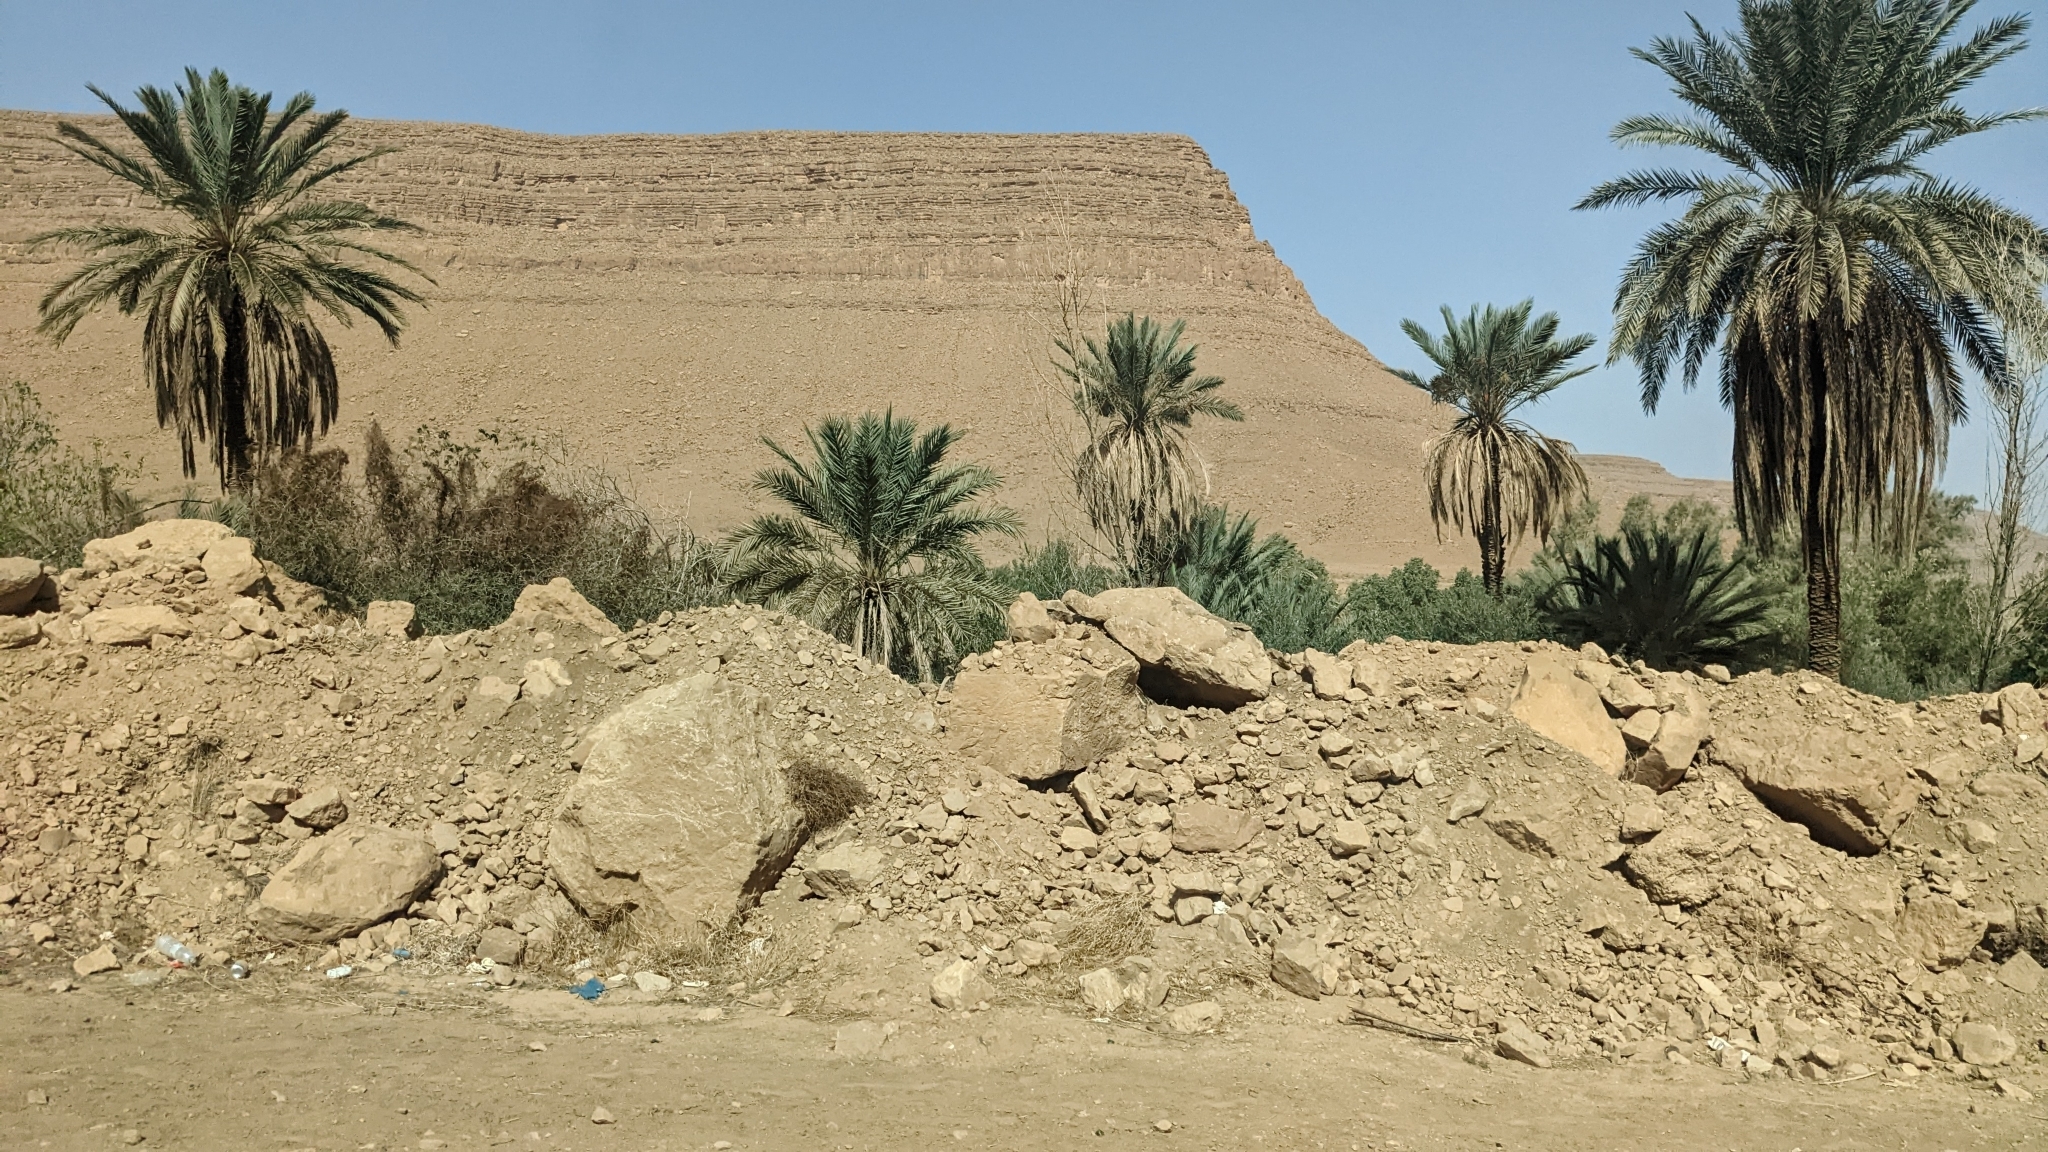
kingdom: Plantae
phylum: Tracheophyta
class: Liliopsida
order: Arecales
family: Arecaceae
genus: Phoenix
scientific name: Phoenix dactylifera
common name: Date palm
